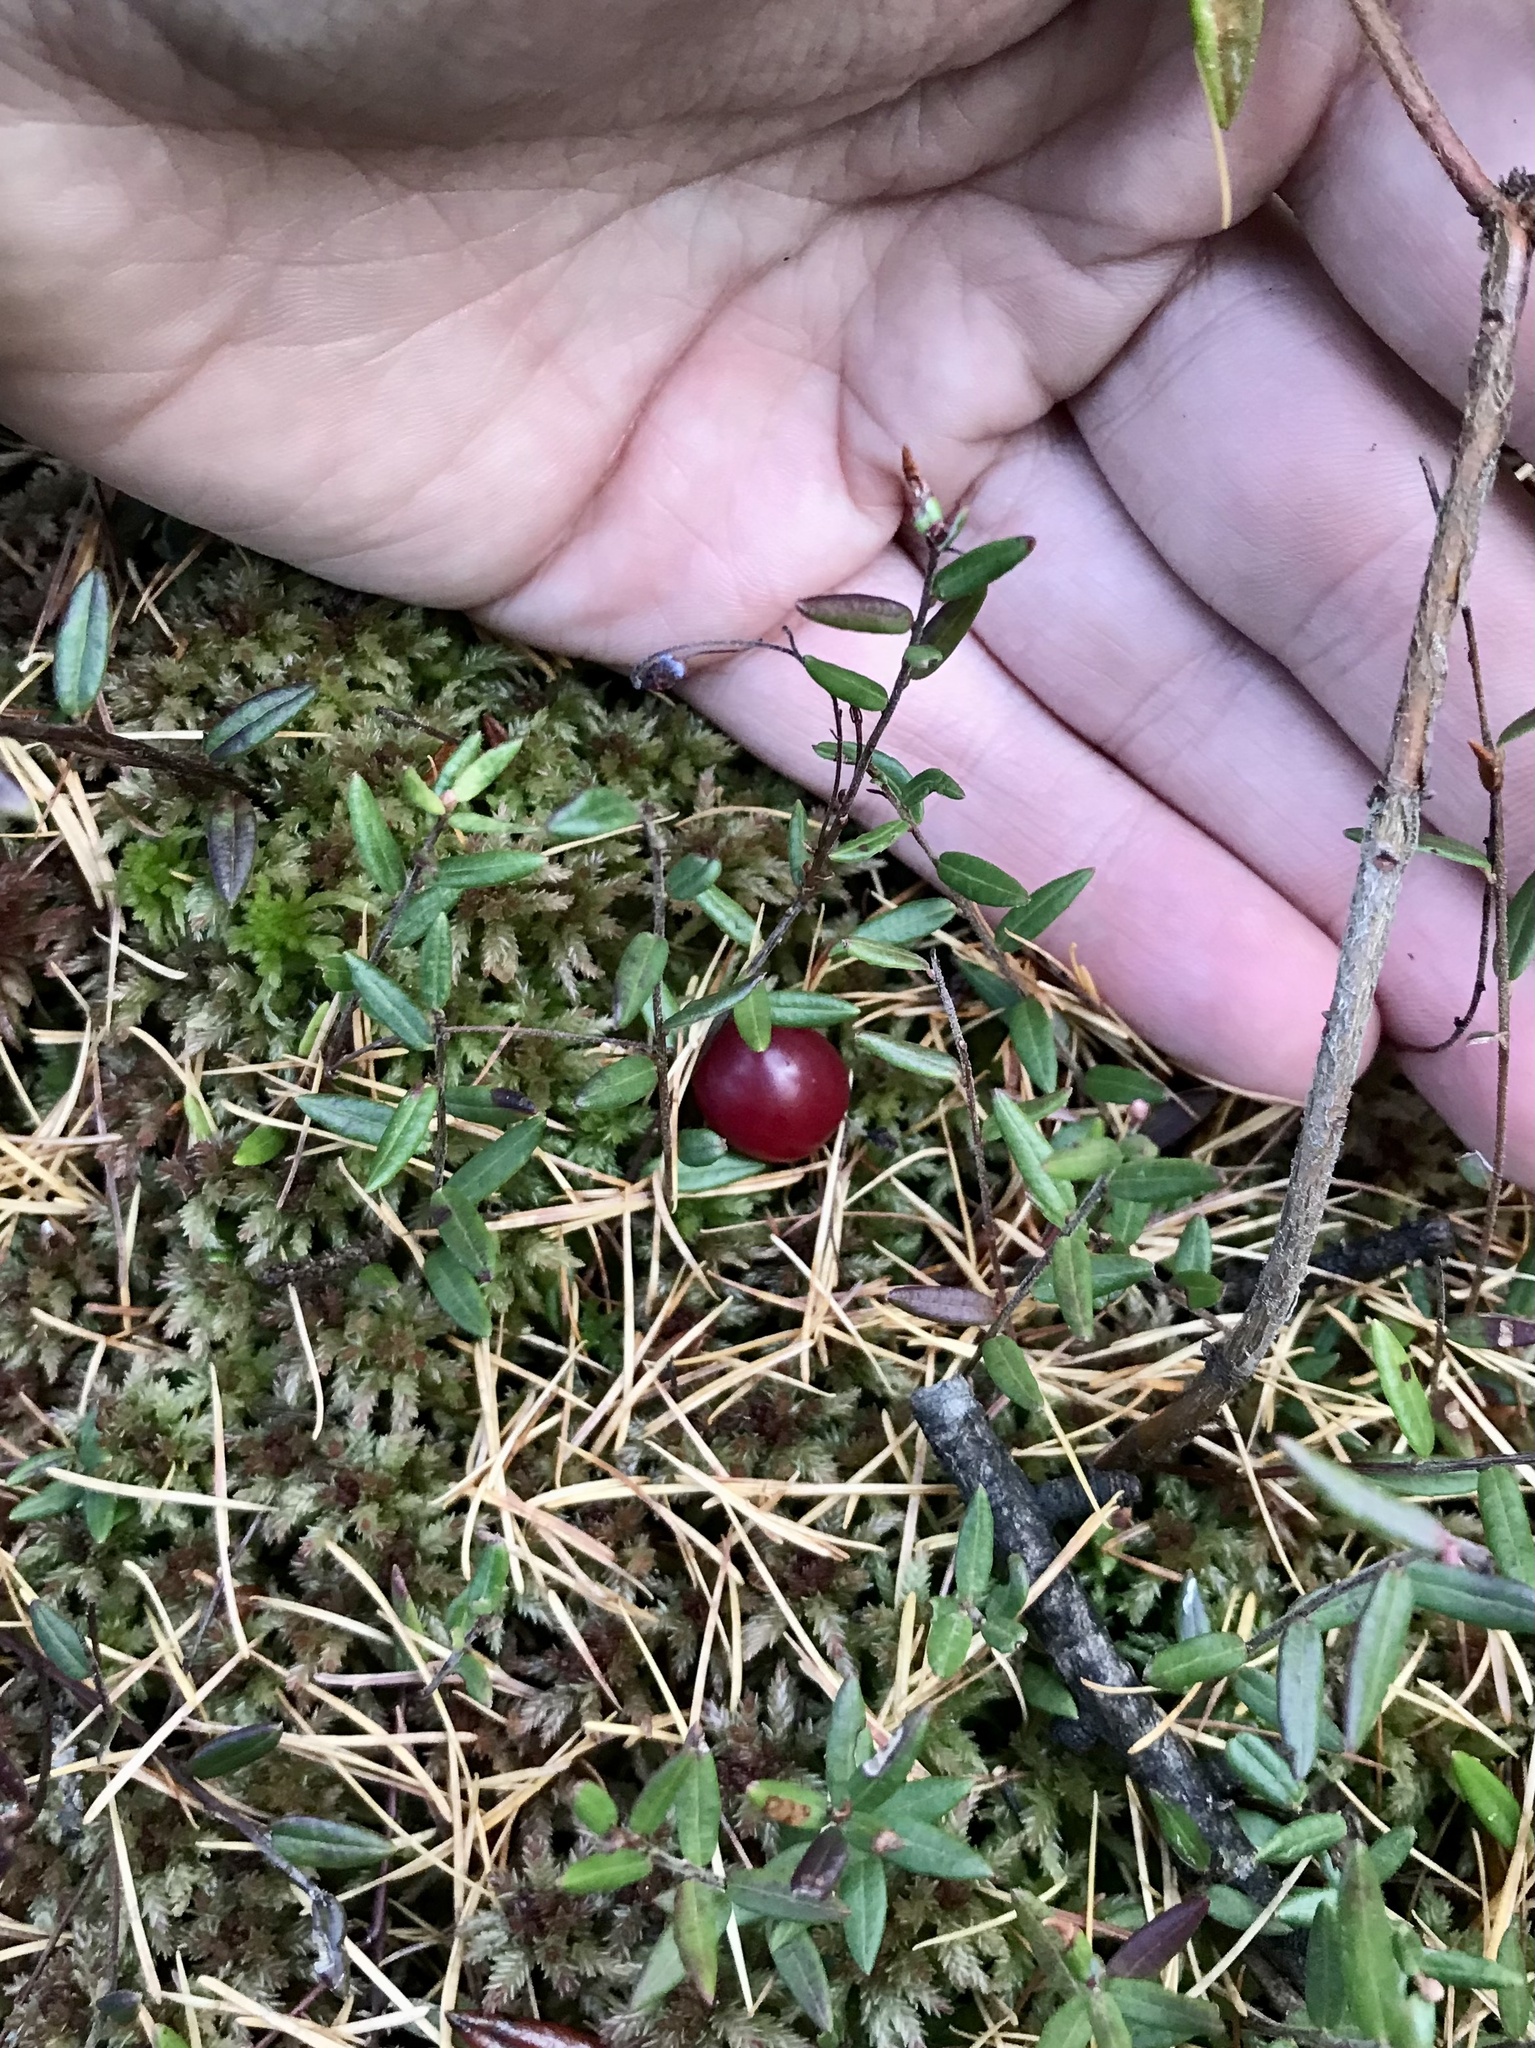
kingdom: Plantae
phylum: Tracheophyta
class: Magnoliopsida
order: Ericales
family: Ericaceae
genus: Vaccinium
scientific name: Vaccinium oxycoccos
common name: Cranberry
